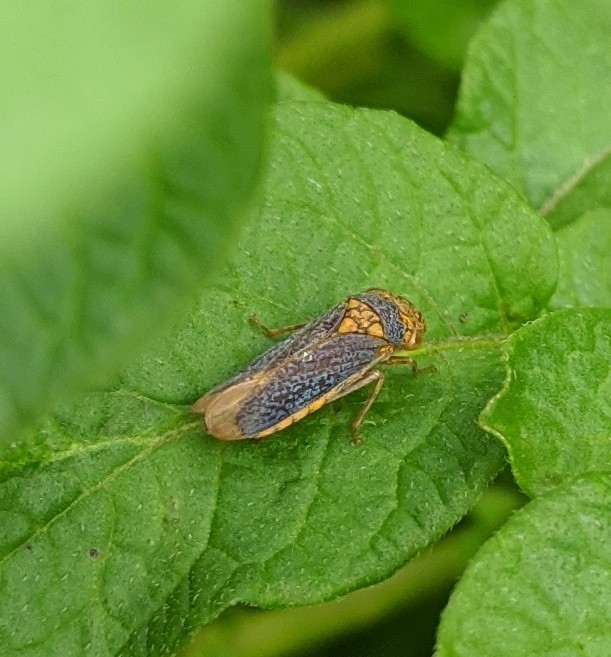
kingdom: Animalia
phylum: Arthropoda
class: Insecta
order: Hemiptera
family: Cicadellidae
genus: Oncometopia
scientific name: Oncometopia orbona
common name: Broad-headed sharpshooter
